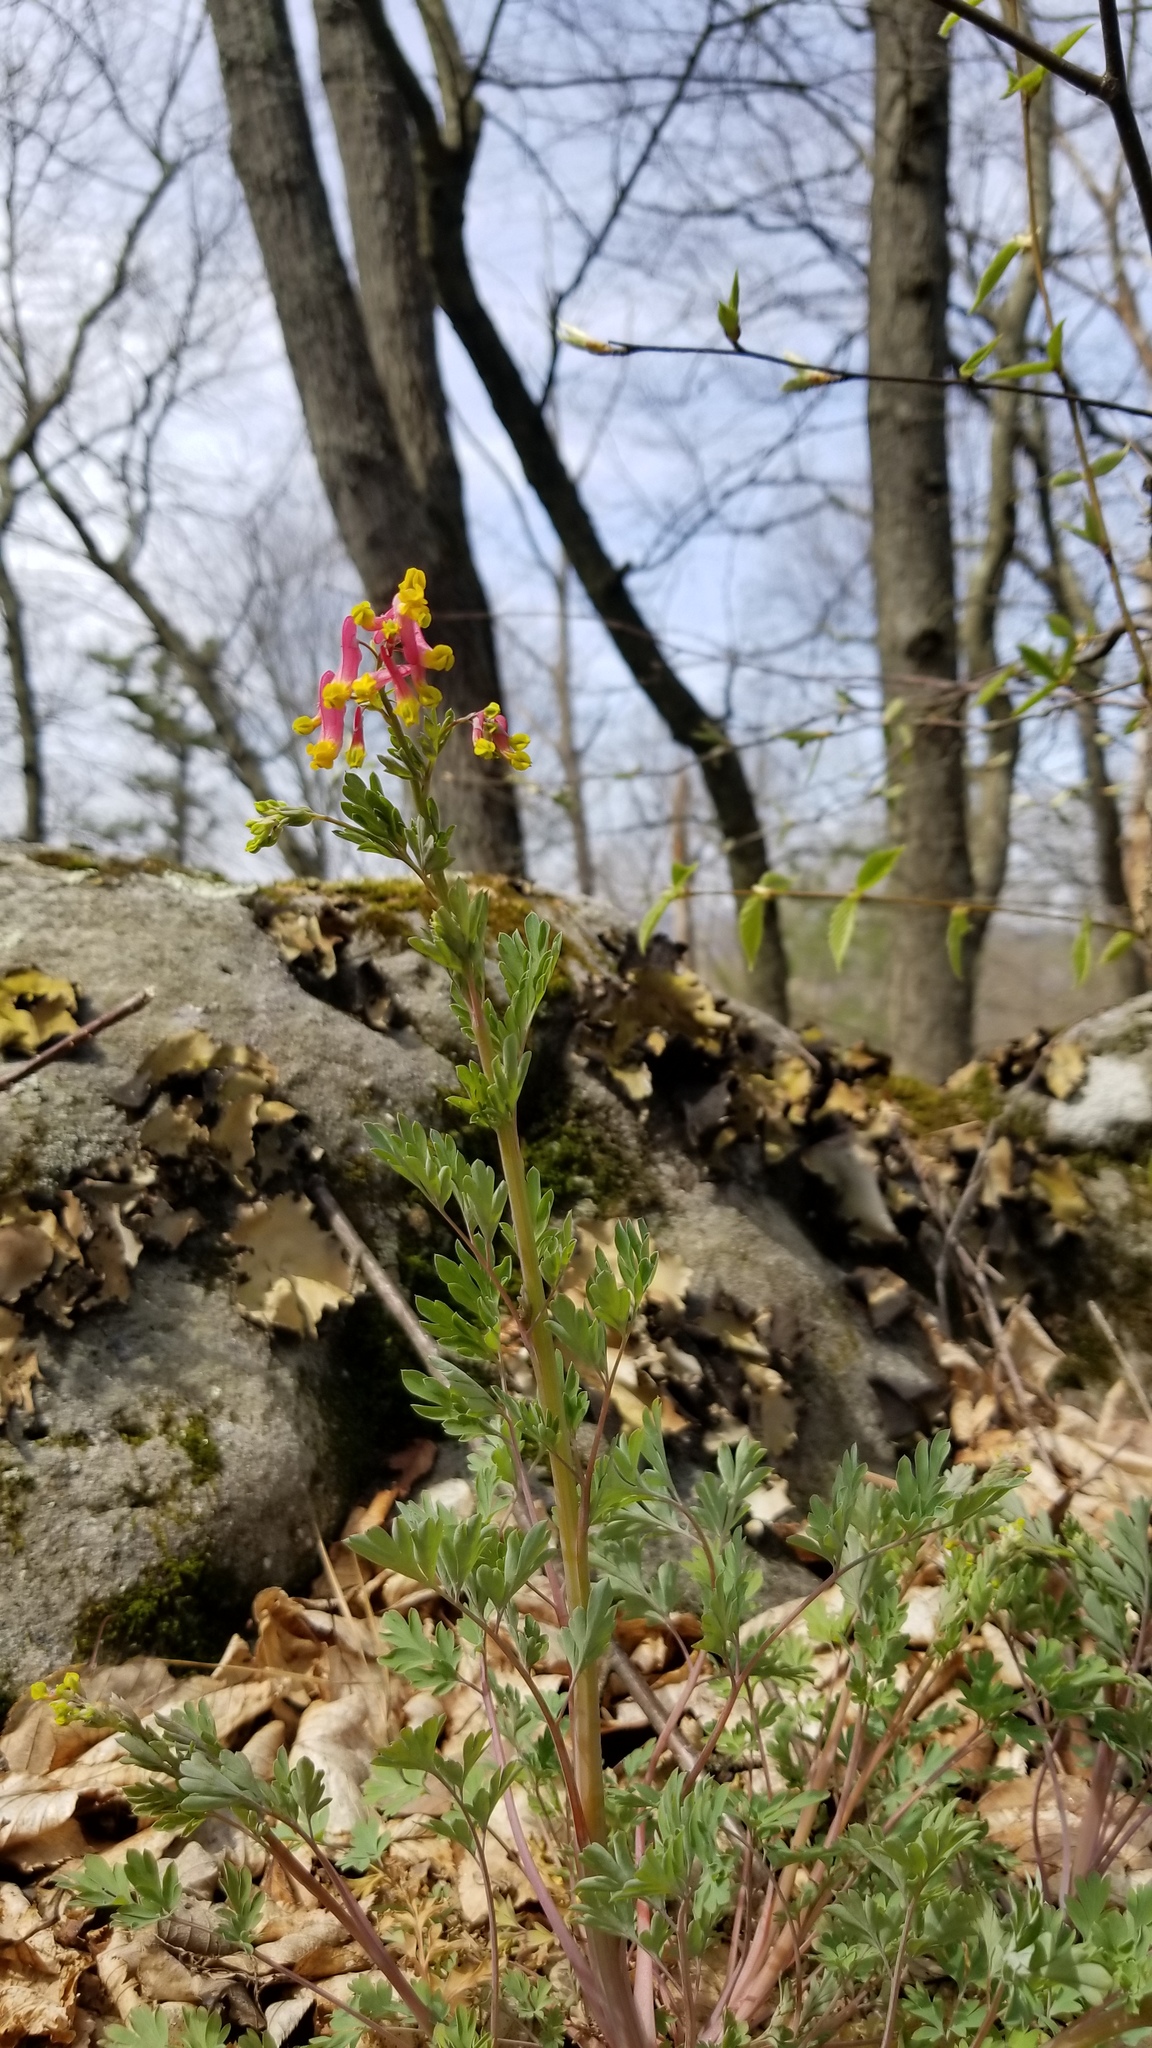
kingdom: Plantae
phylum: Tracheophyta
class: Magnoliopsida
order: Ranunculales
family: Papaveraceae
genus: Capnoides
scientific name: Capnoides sempervirens
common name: Rock harlequin
